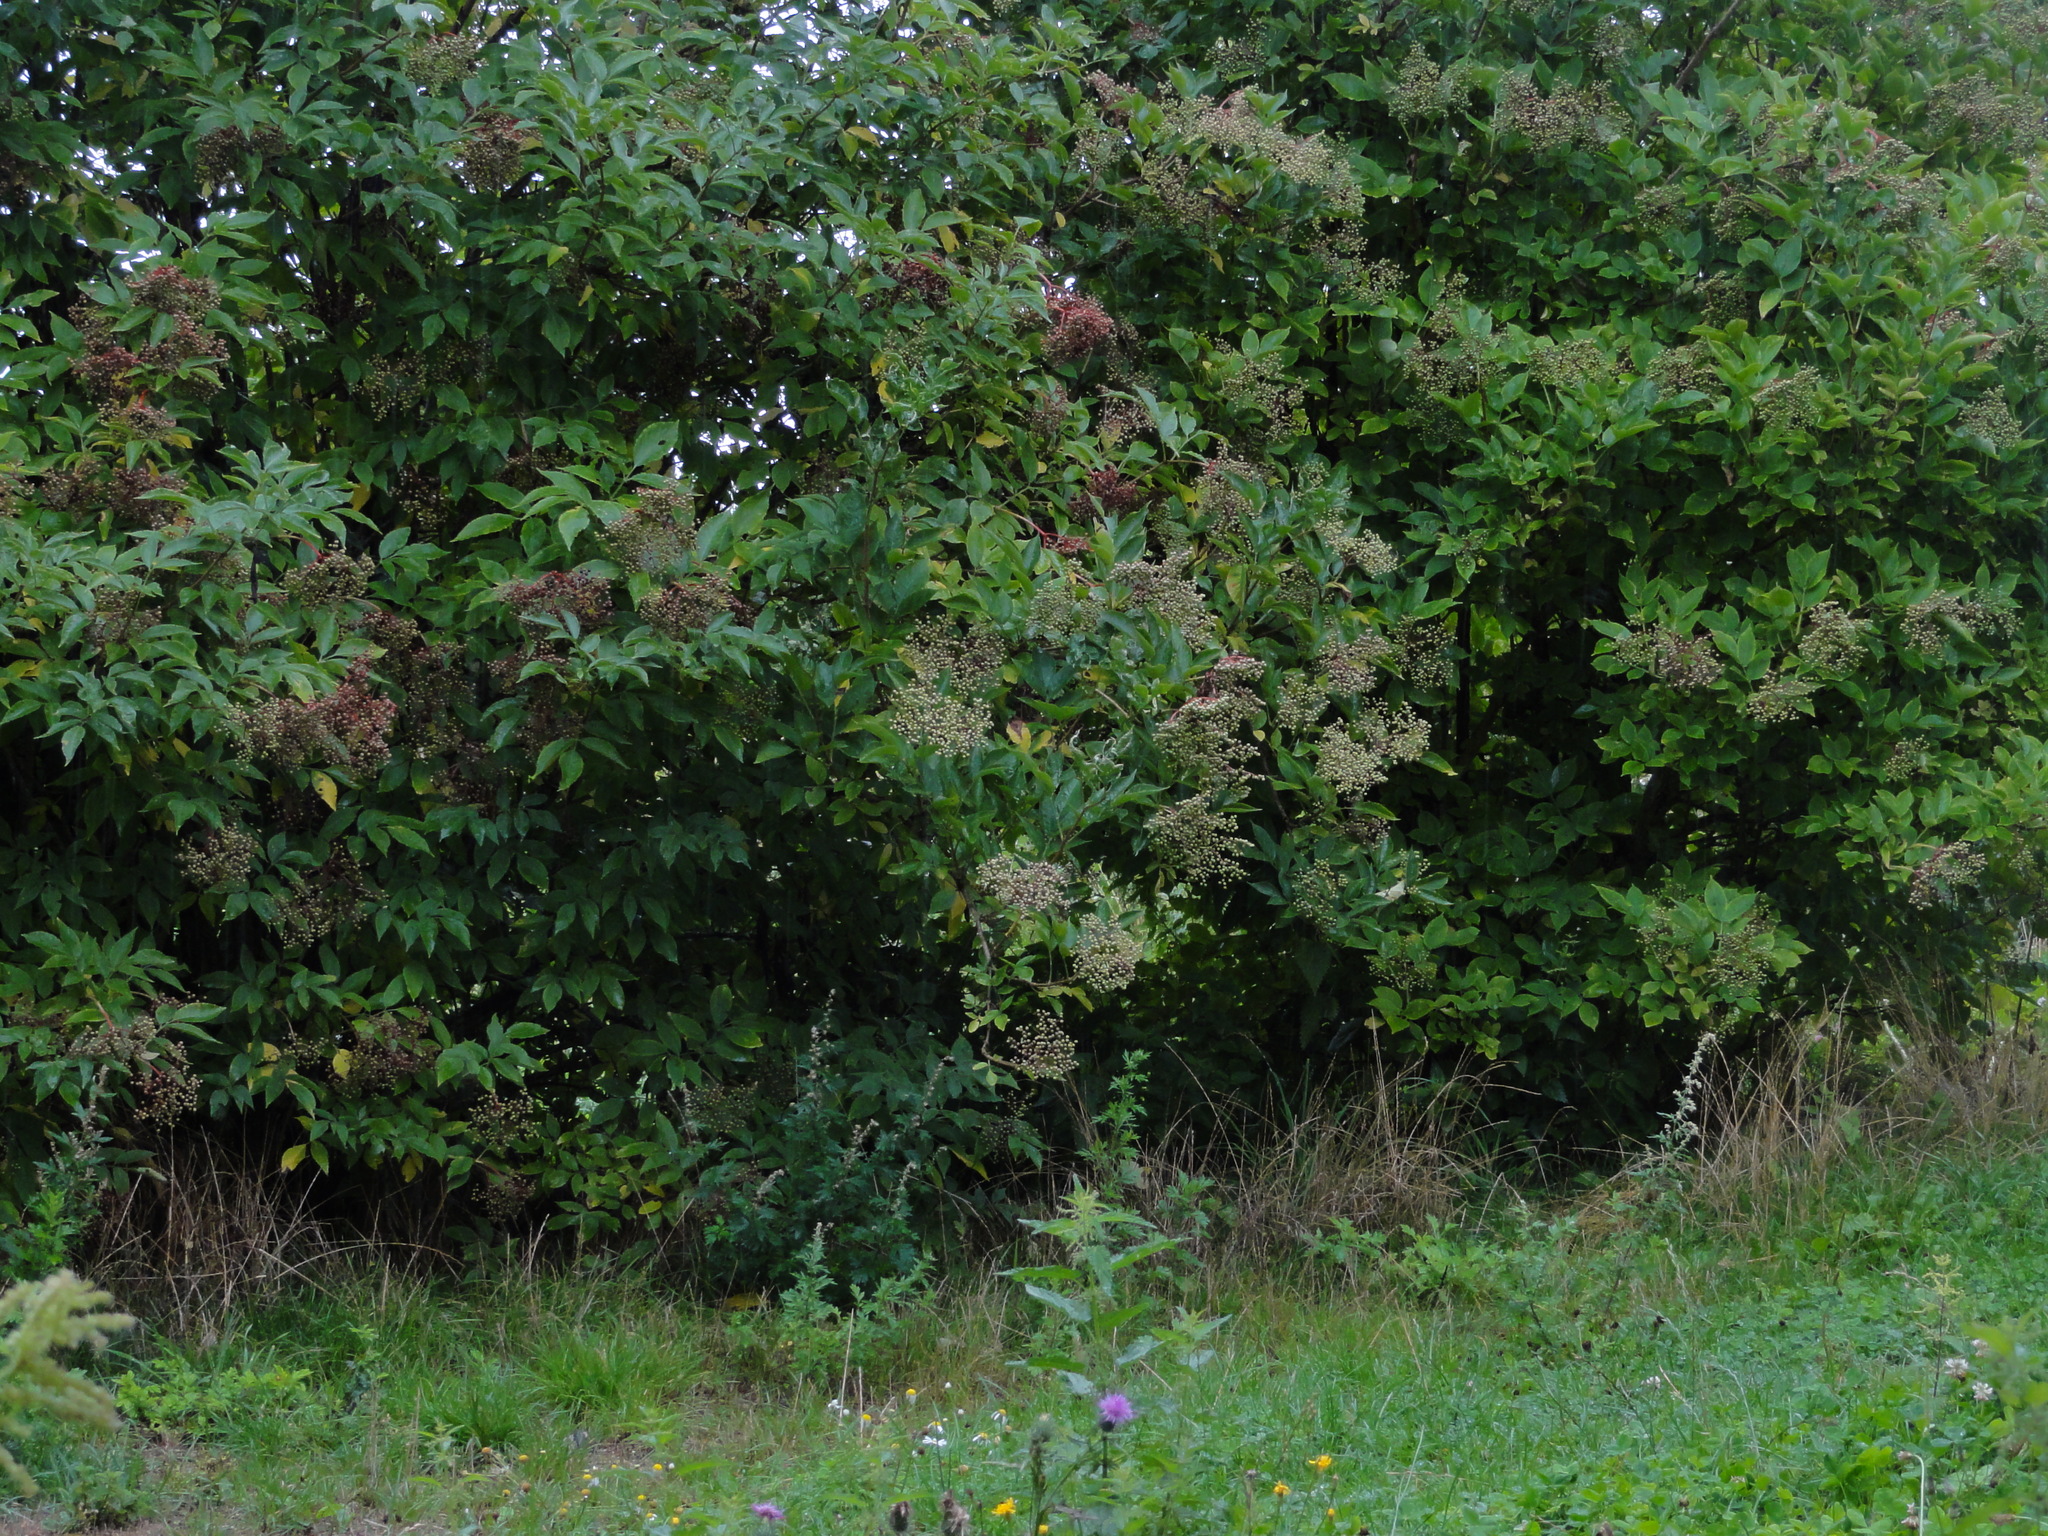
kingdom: Plantae
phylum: Tracheophyta
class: Magnoliopsida
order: Dipsacales
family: Viburnaceae
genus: Sambucus
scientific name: Sambucus nigra
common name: Elder
